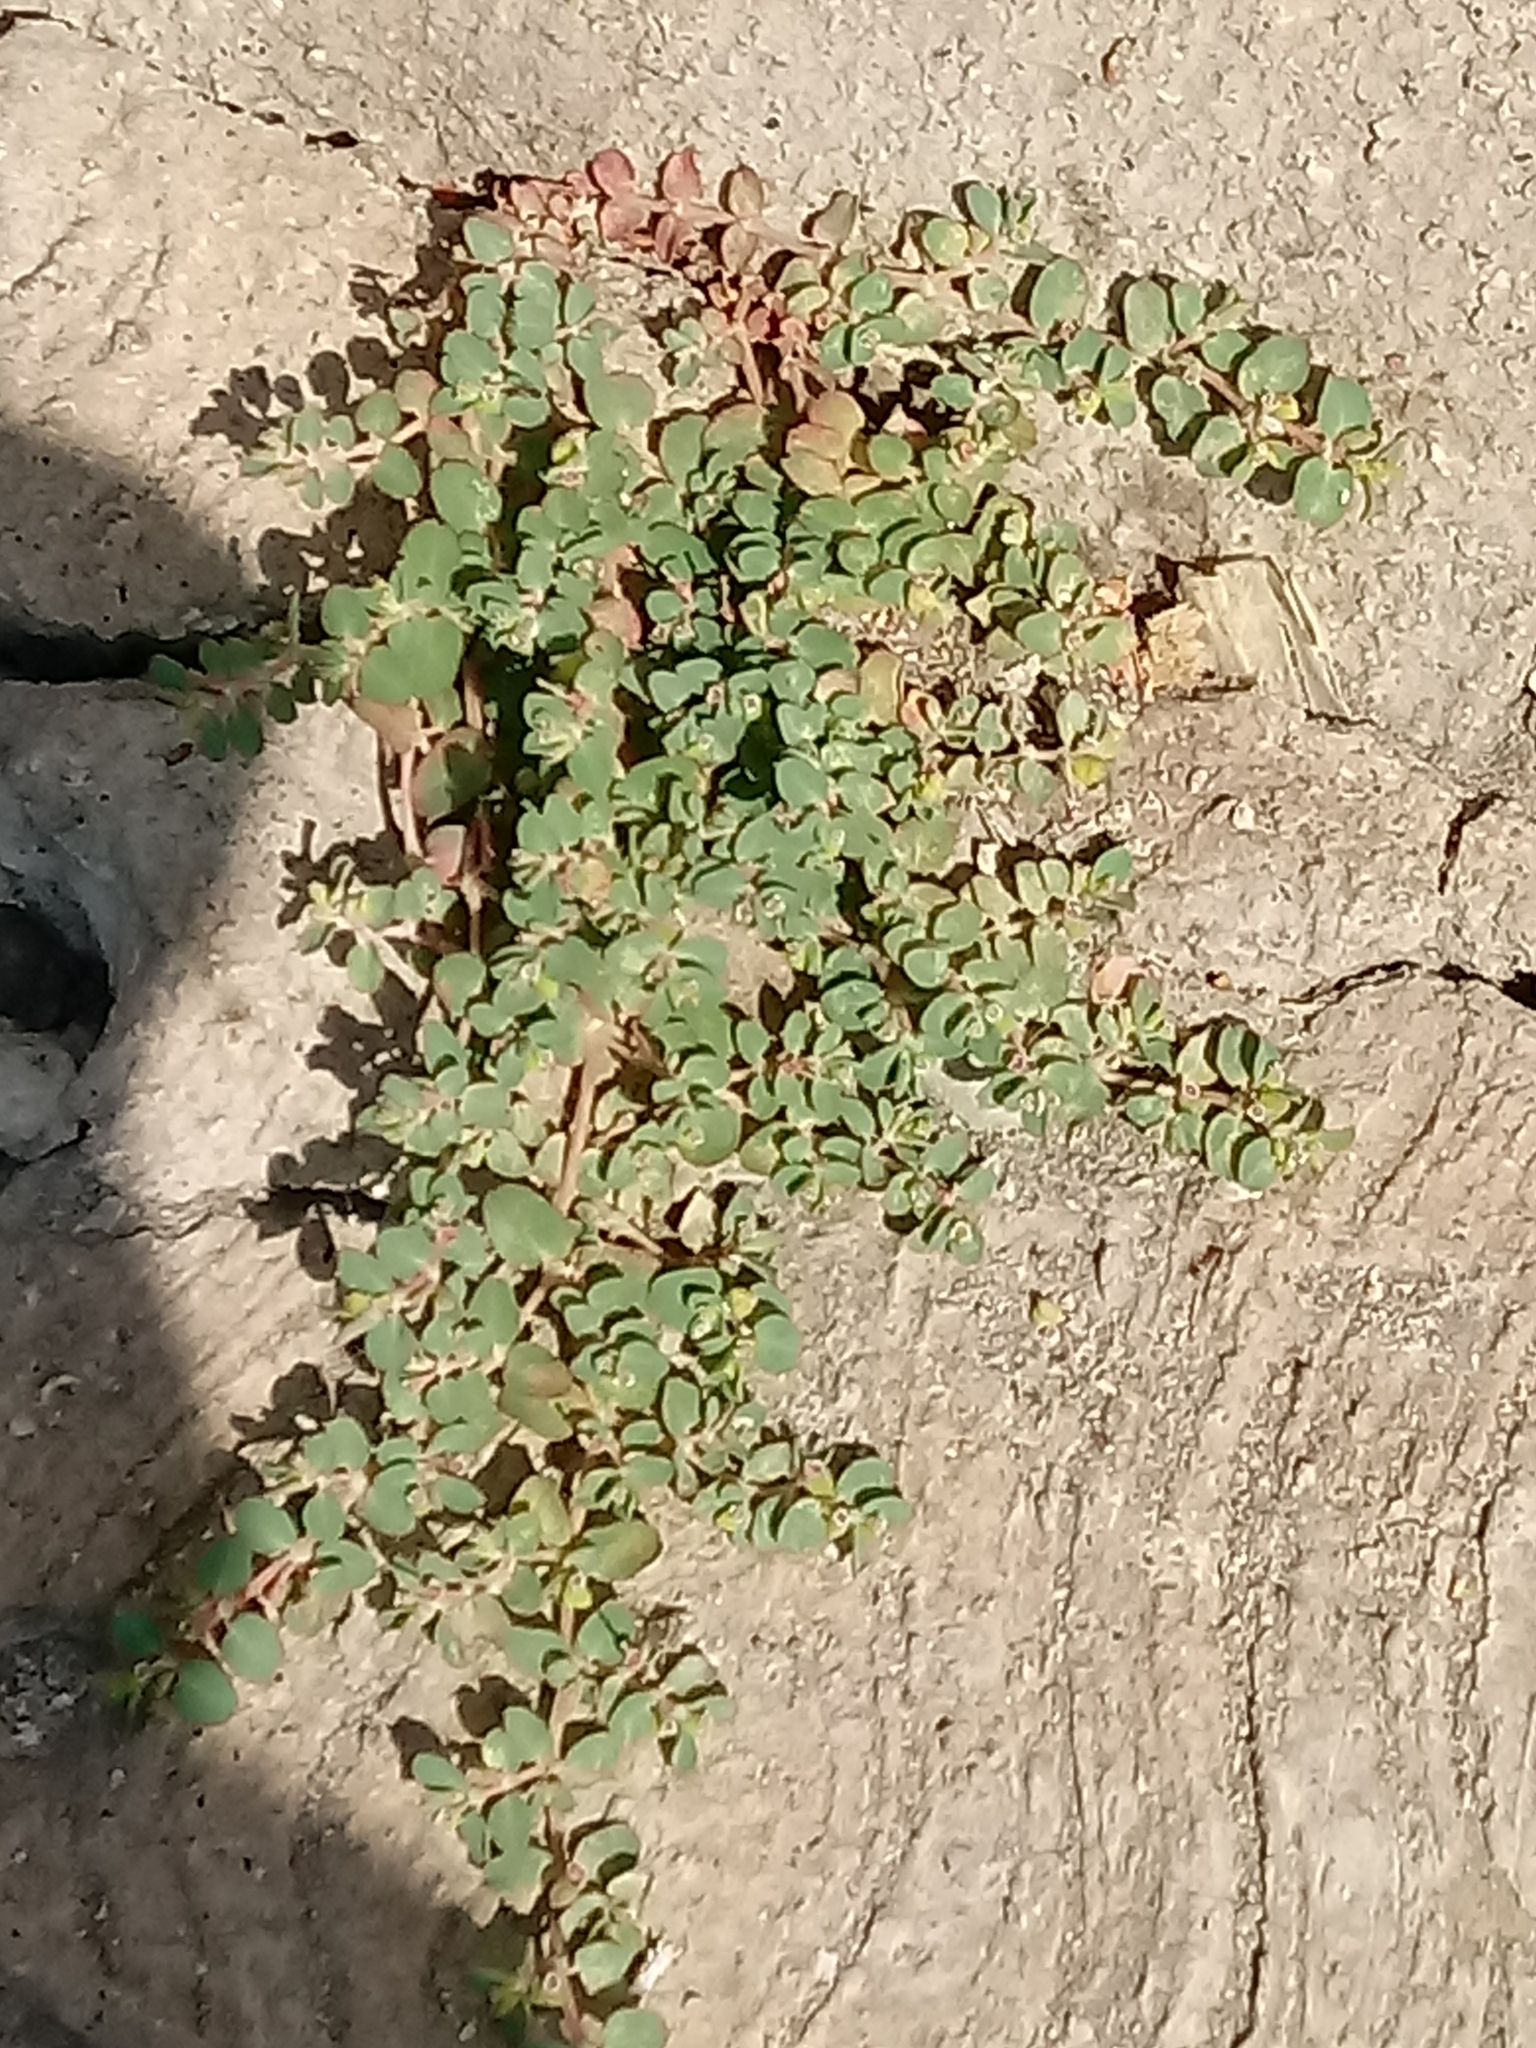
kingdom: Plantae
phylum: Tracheophyta
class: Magnoliopsida
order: Malpighiales
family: Euphorbiaceae
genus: Euphorbia
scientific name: Euphorbia serpens
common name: Matted sandmat
